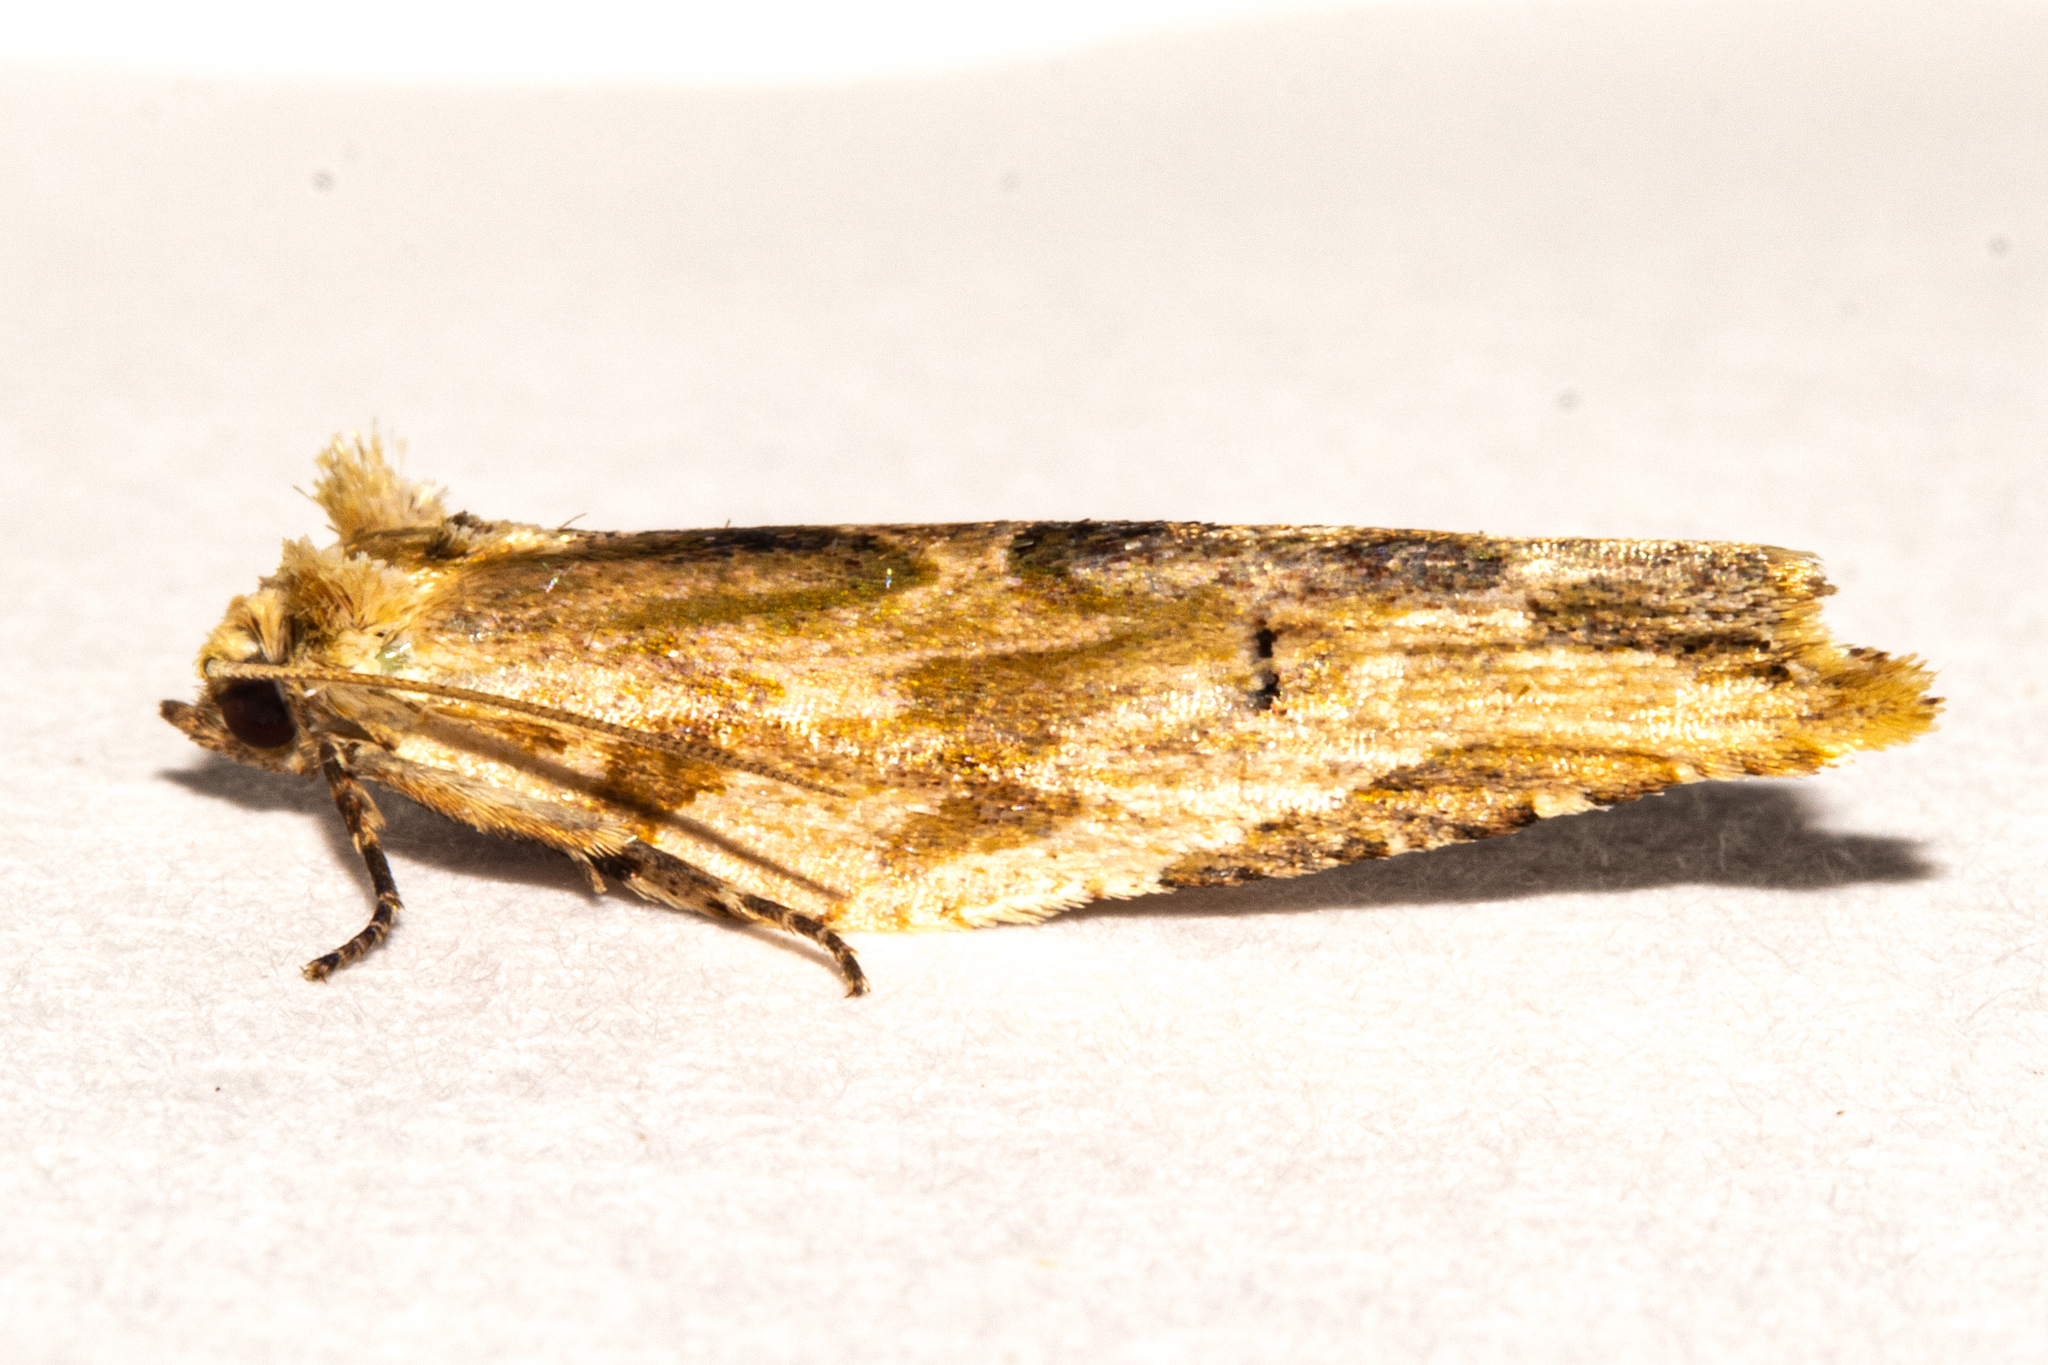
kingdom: Animalia
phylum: Arthropoda
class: Insecta
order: Lepidoptera
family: Tortricidae
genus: Epalxiphora
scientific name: Epalxiphora axenana
